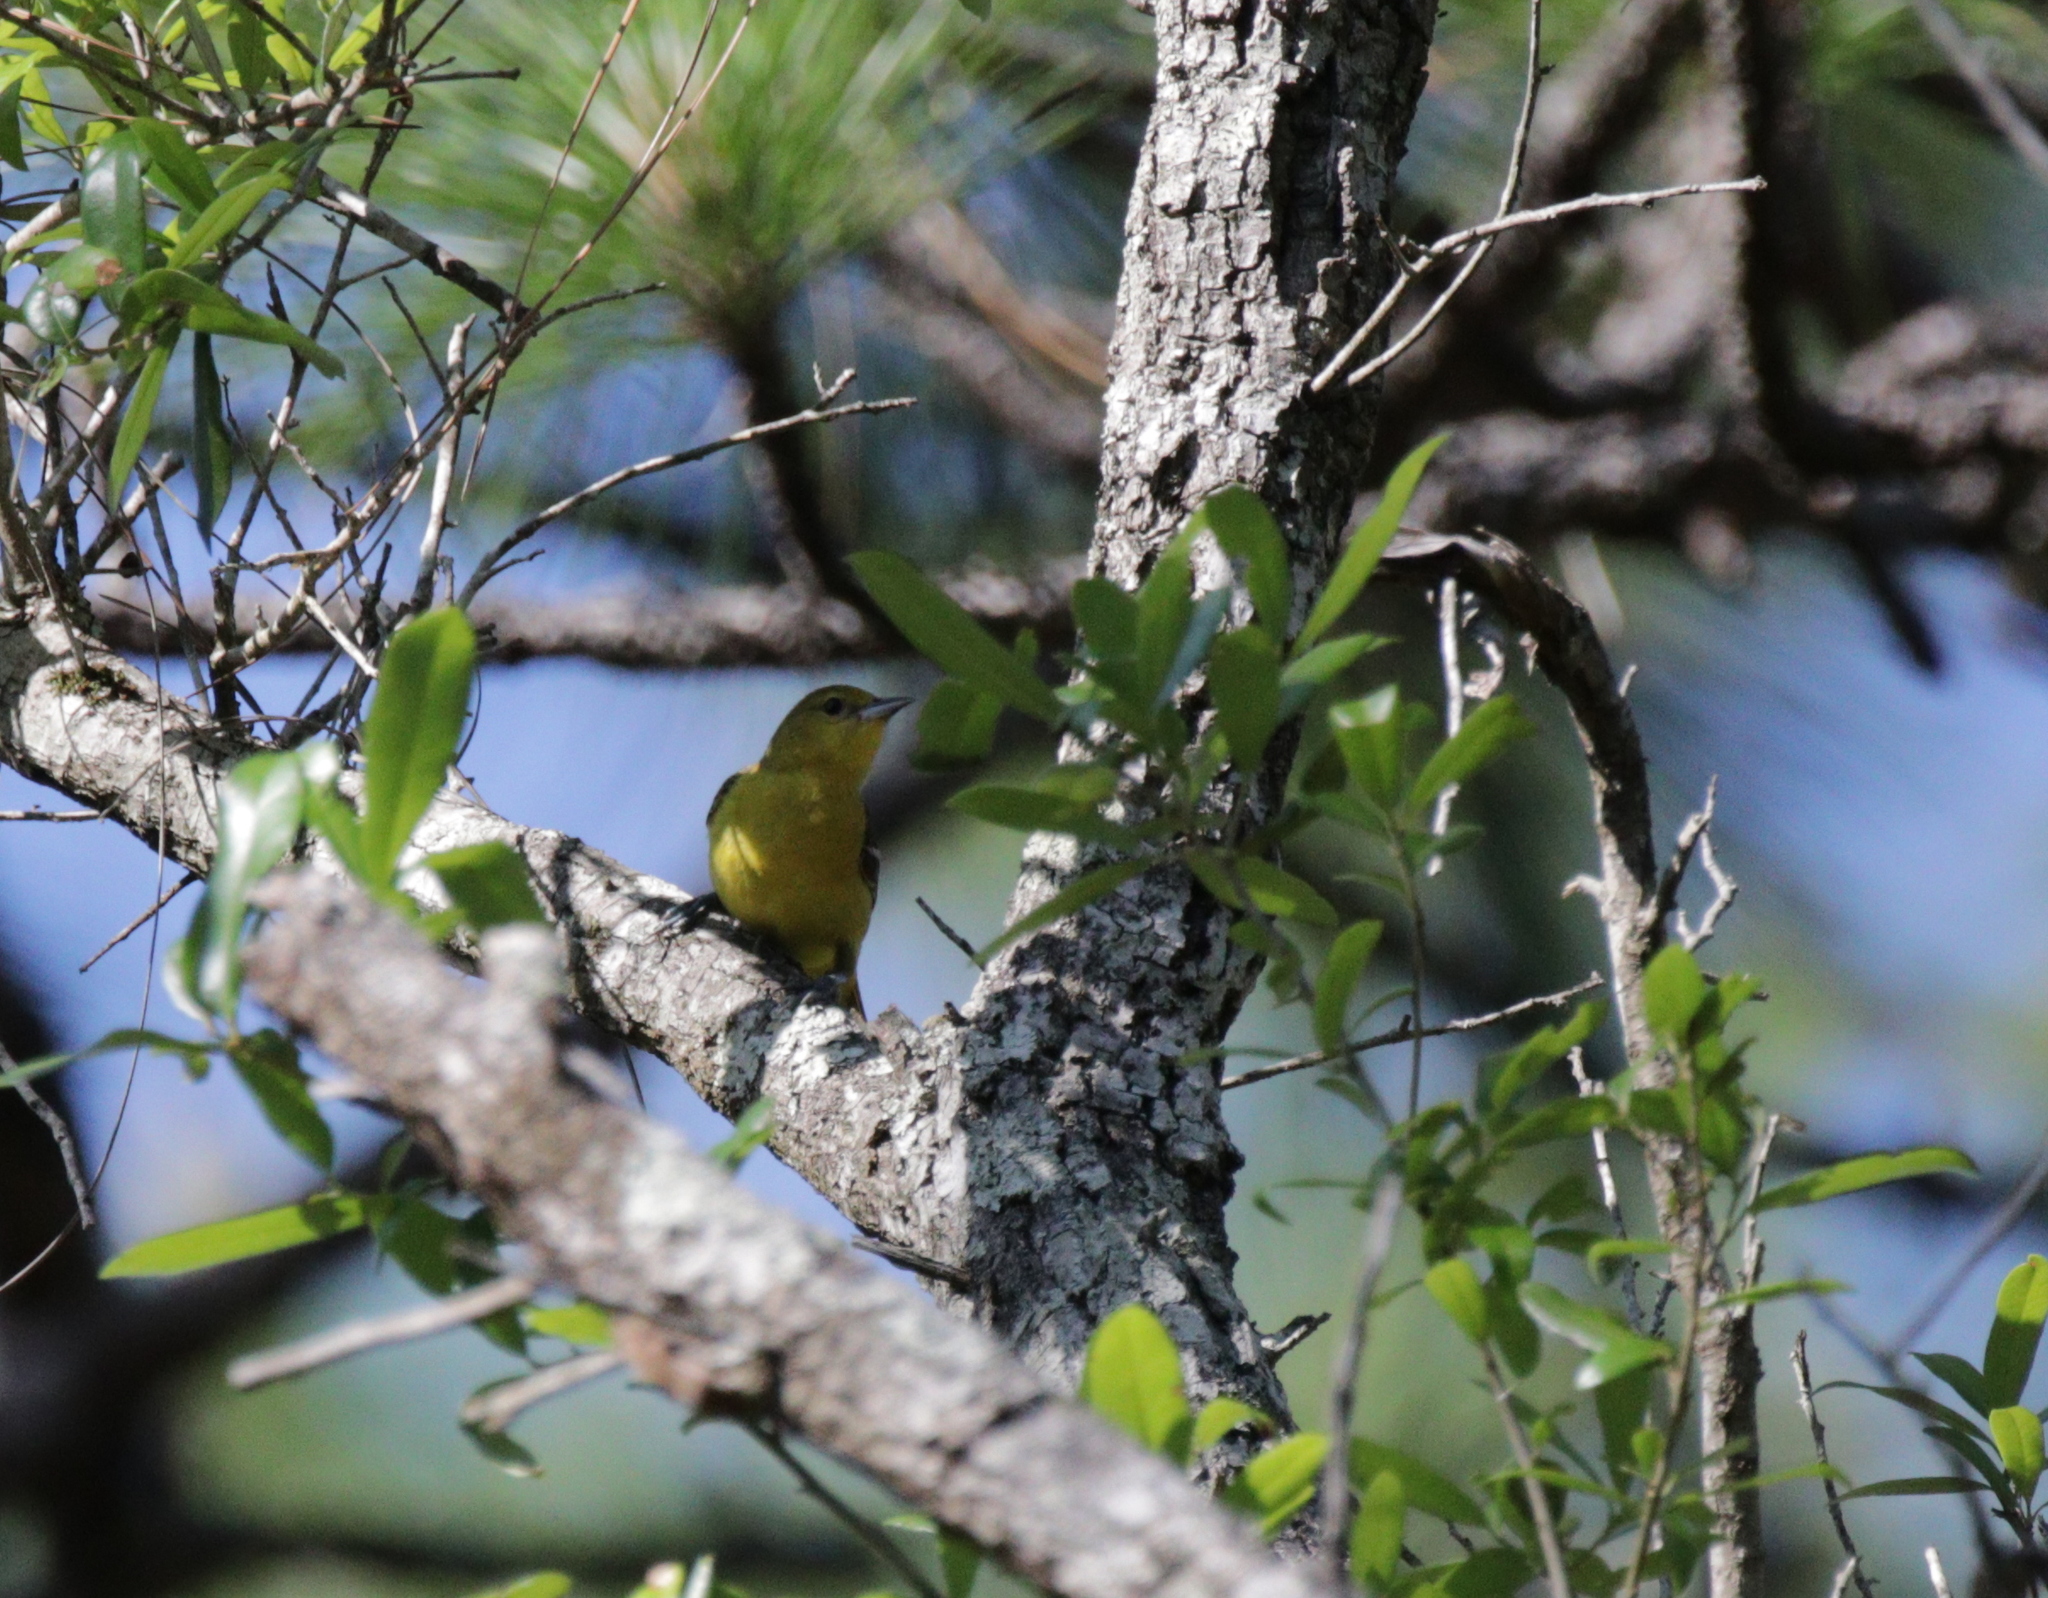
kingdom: Animalia
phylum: Chordata
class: Aves
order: Passeriformes
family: Icteridae
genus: Icterus
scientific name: Icterus spurius
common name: Orchard oriole
